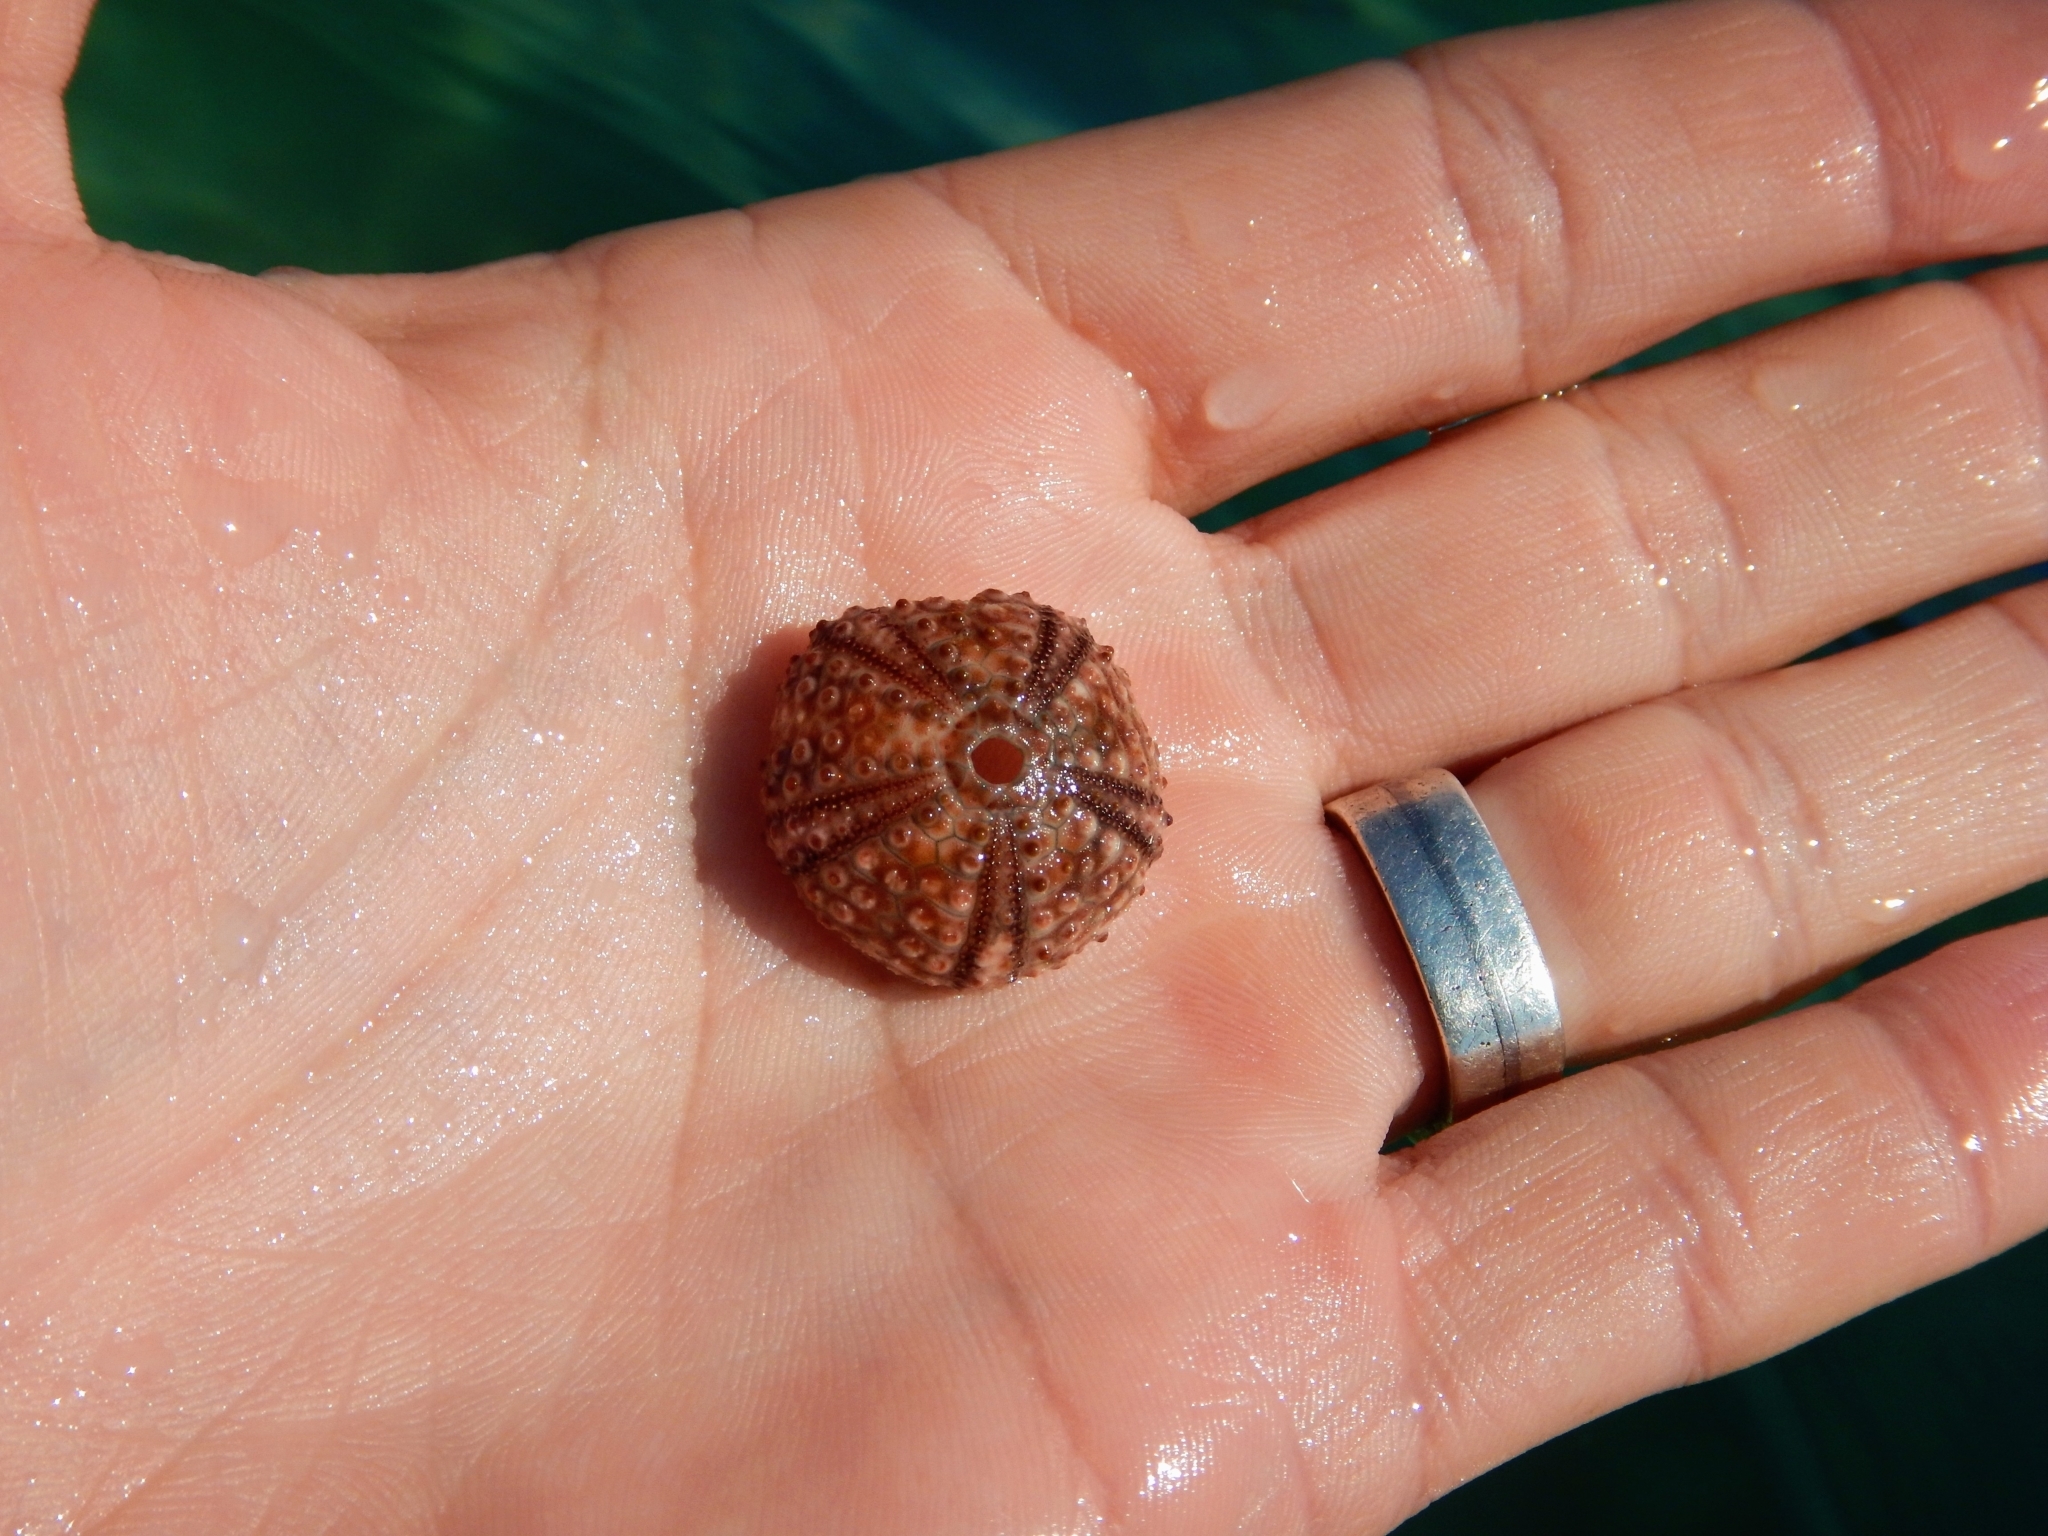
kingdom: Animalia
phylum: Echinodermata
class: Echinoidea
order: Arbacioida
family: Arbaciidae
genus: Arbacia
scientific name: Arbacia lixula
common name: Black sea urchin
